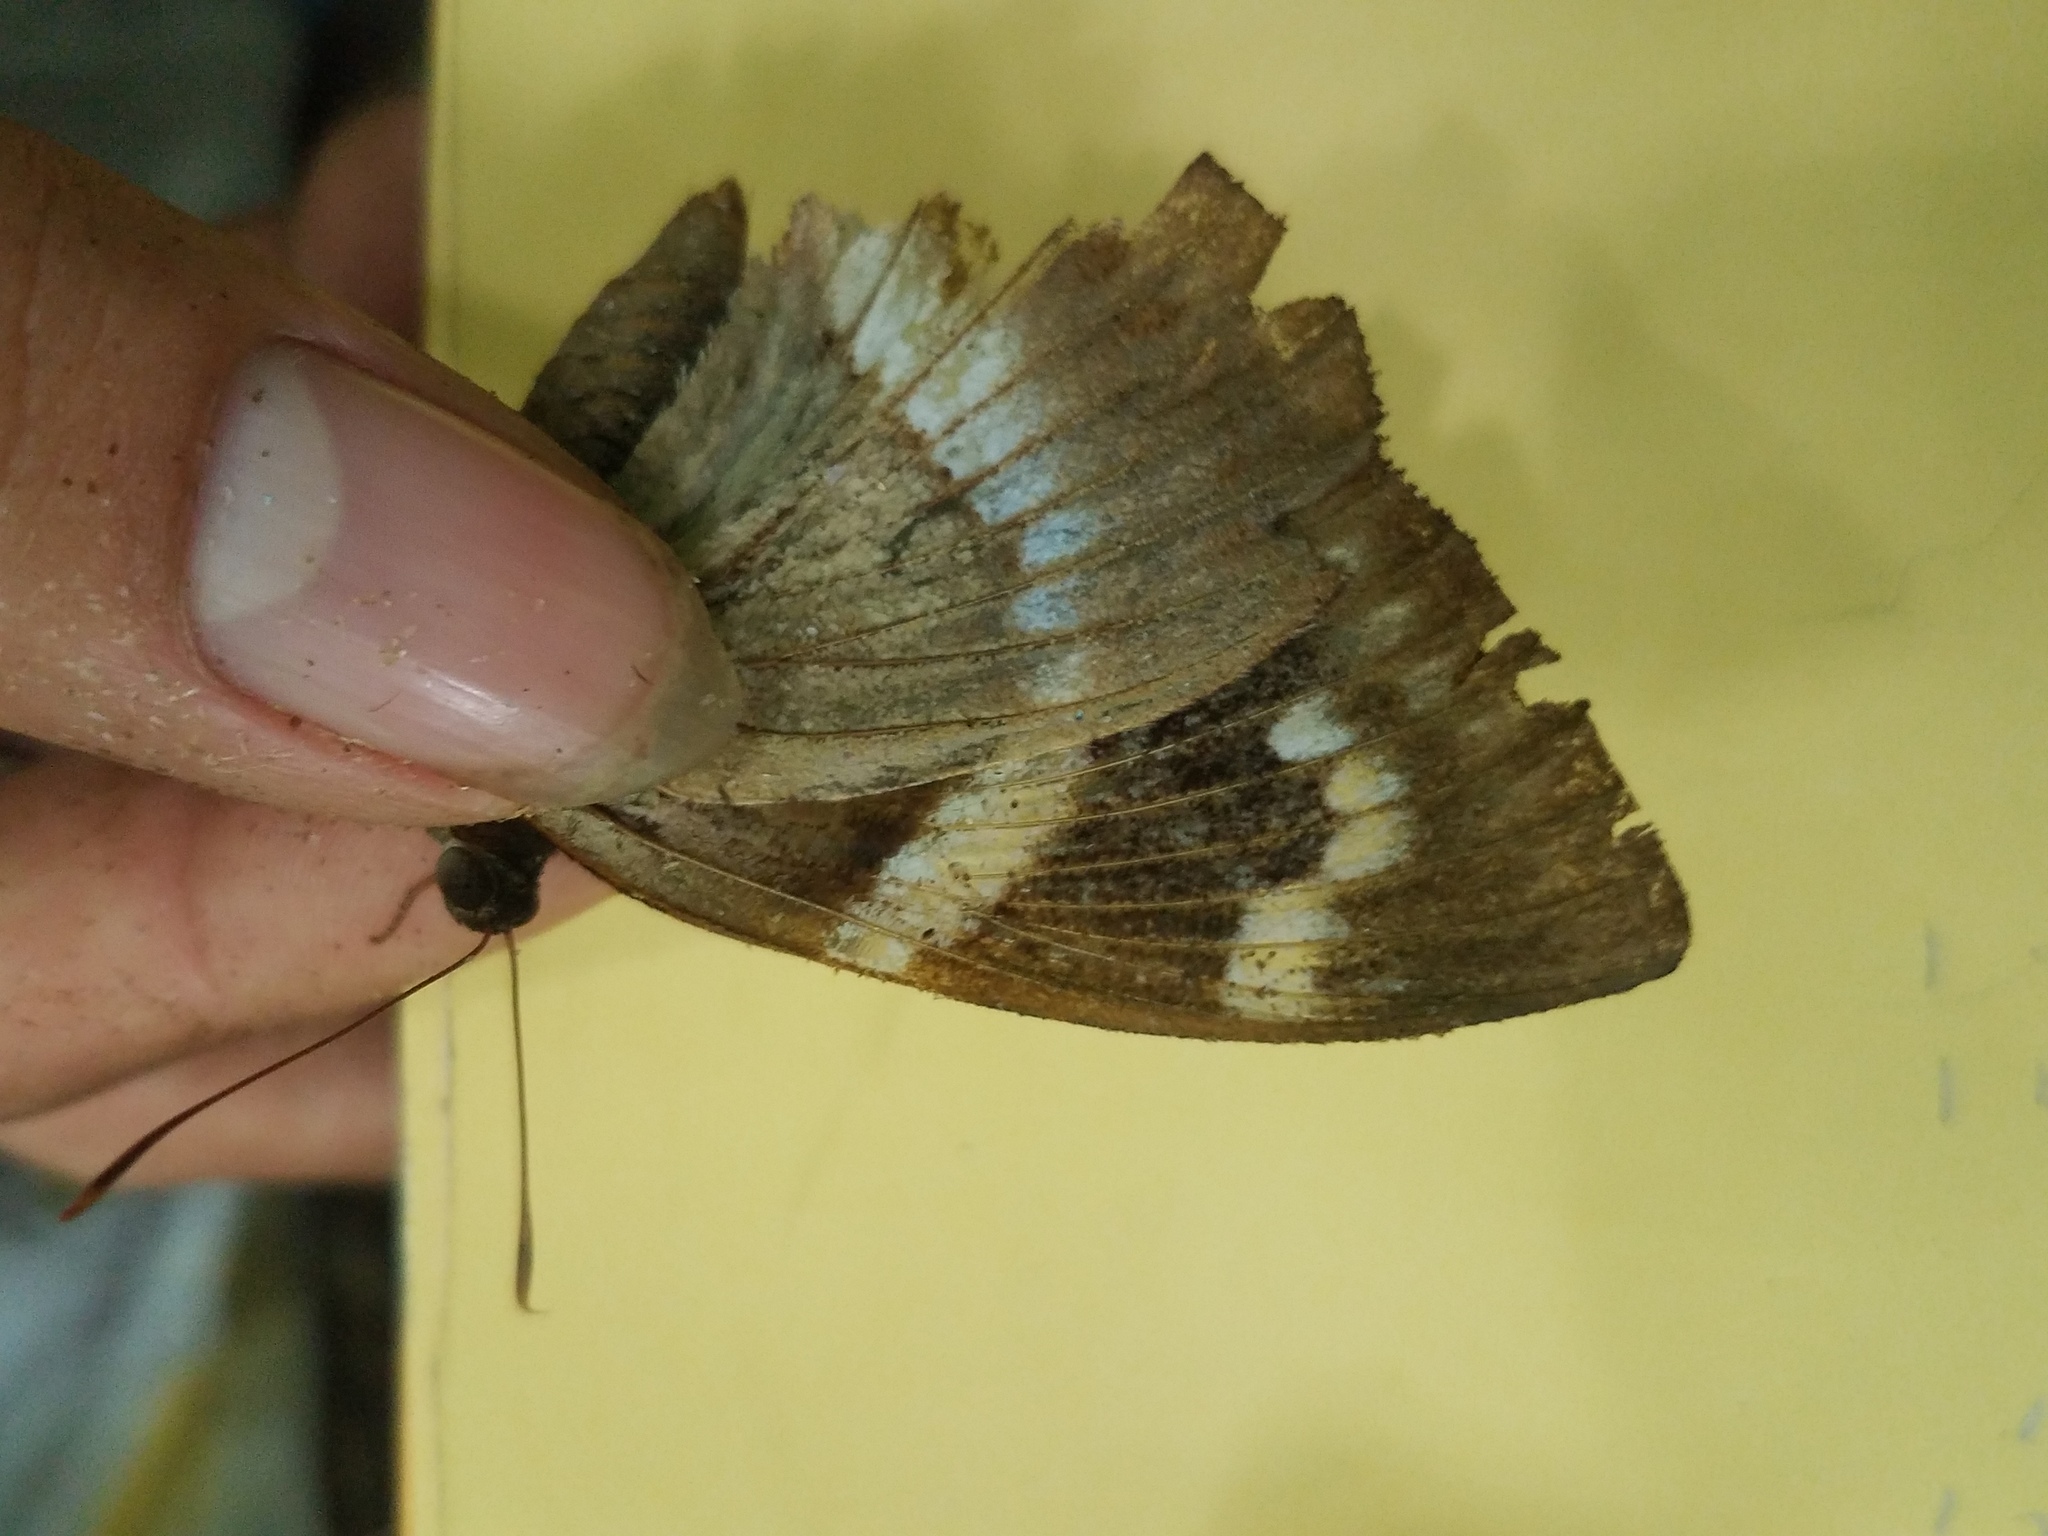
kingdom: Animalia
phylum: Arthropoda
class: Insecta
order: Lepidoptera
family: Castniidae
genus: Castniomera
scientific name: Castniomera atymnius
